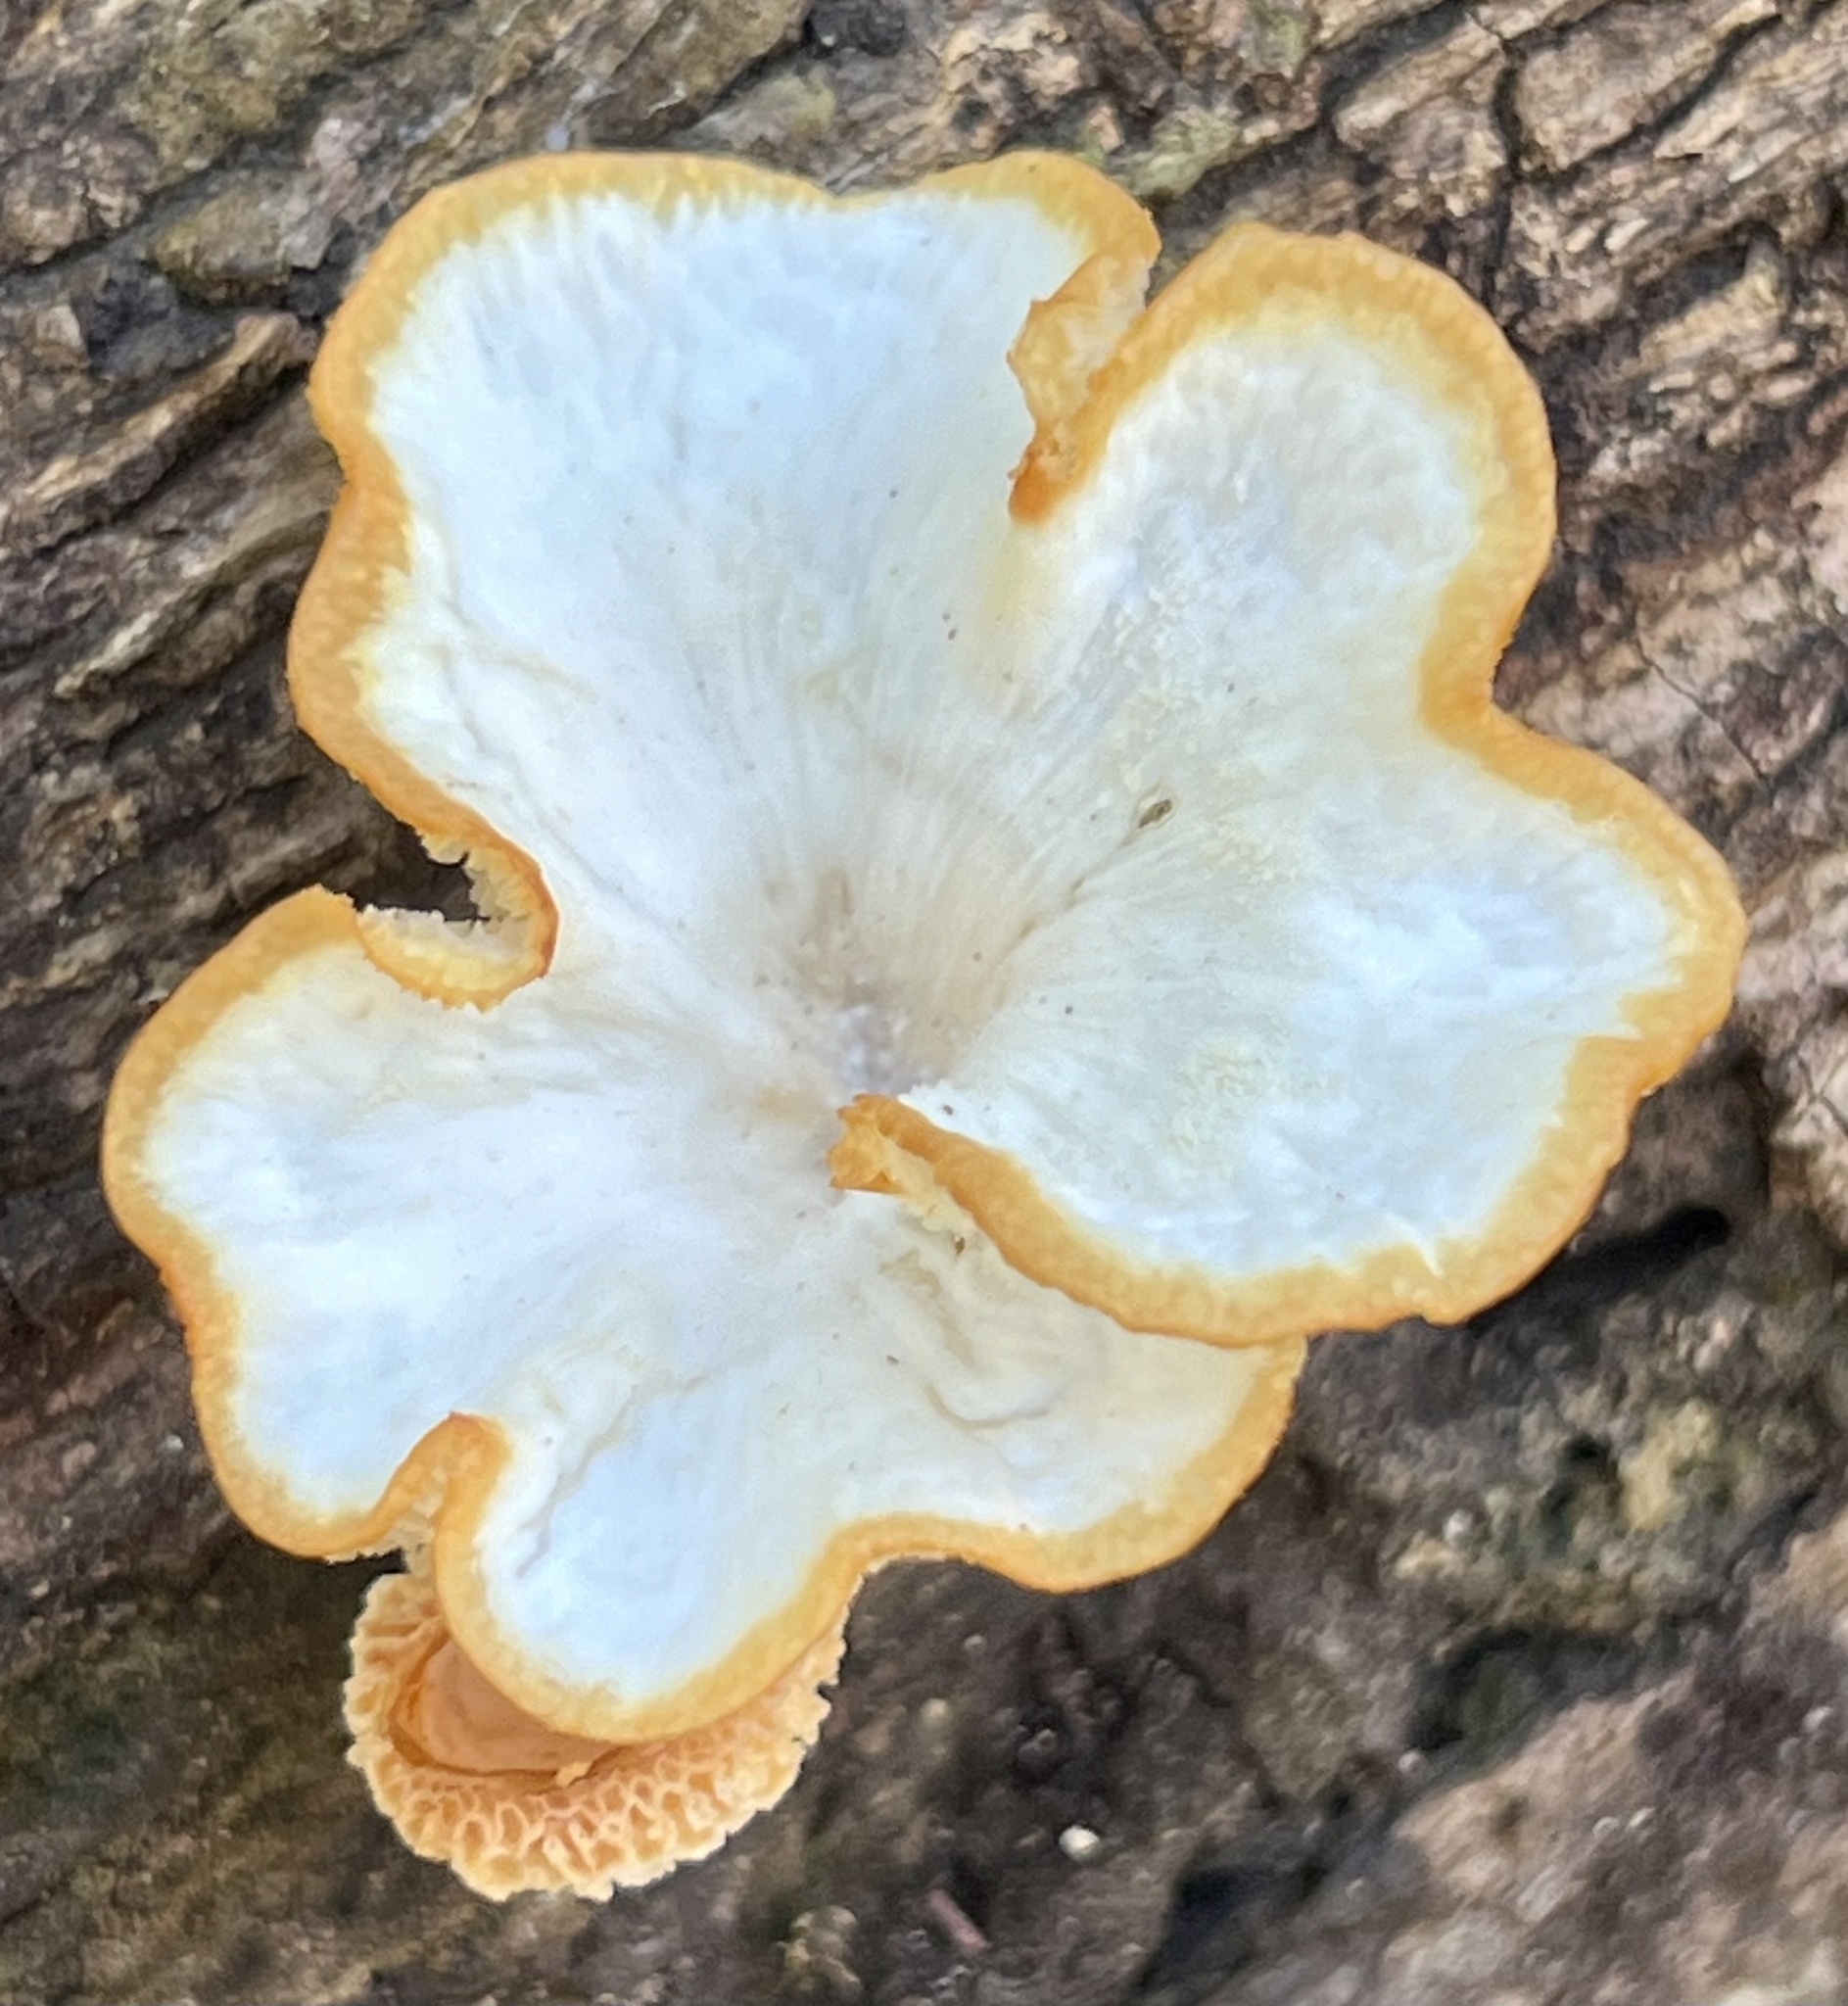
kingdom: Fungi
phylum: Basidiomycota
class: Agaricomycetes
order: Polyporales
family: Polyporaceae
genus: Favolus
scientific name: Favolus tenuiculus
